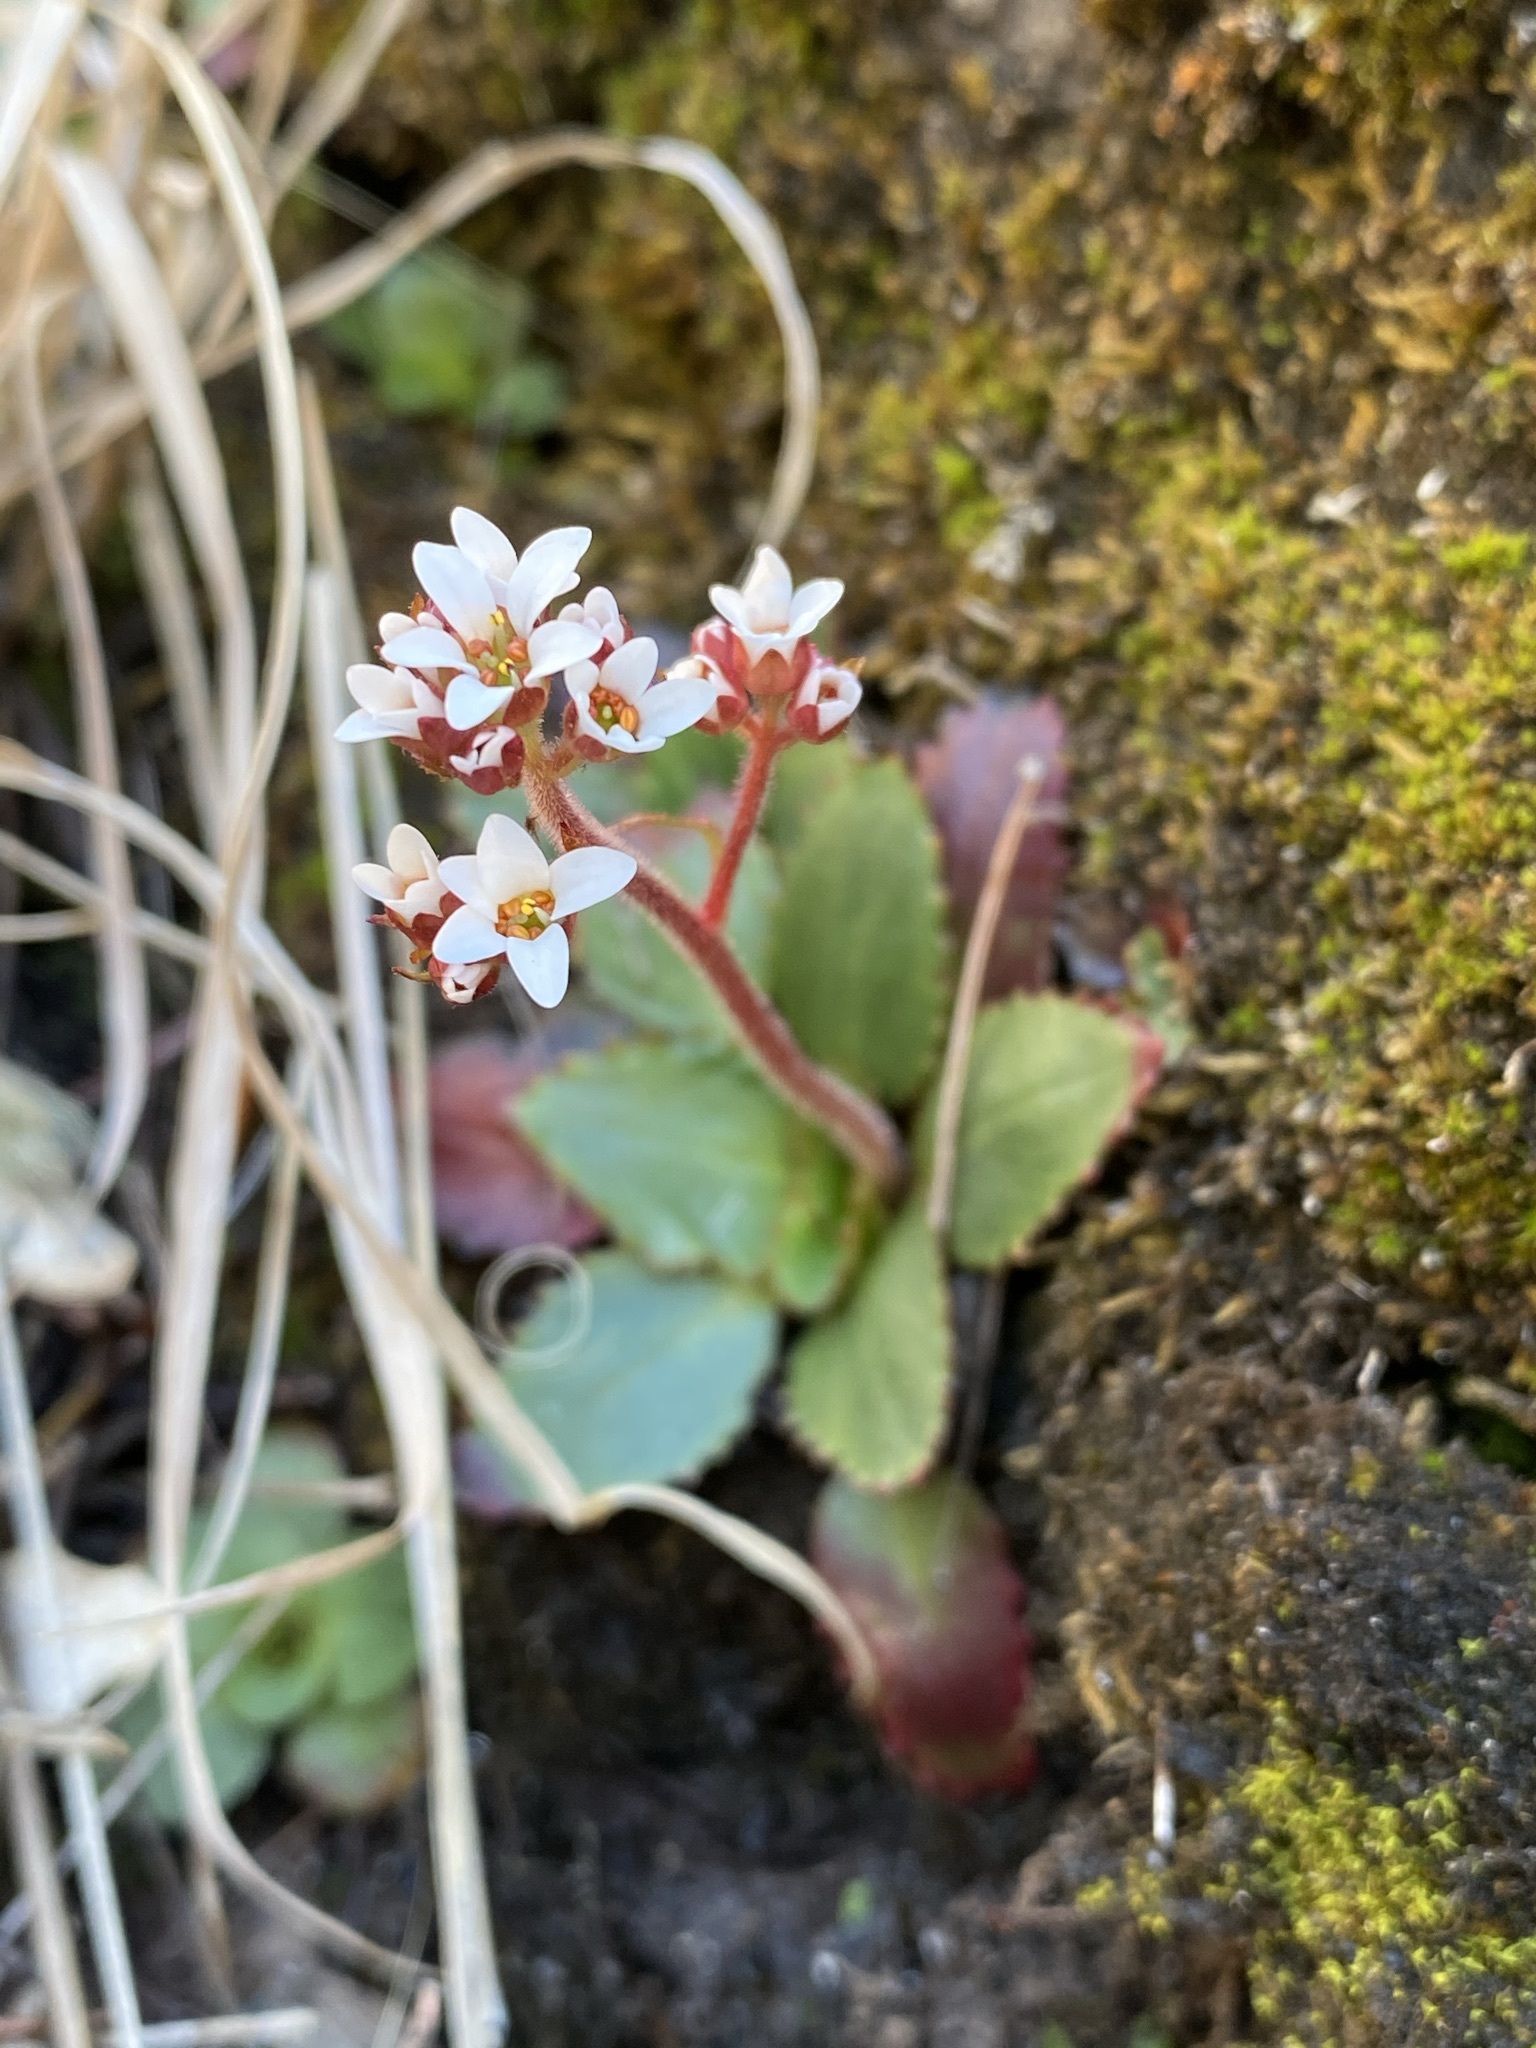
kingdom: Plantae
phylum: Tracheophyta
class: Magnoliopsida
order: Saxifragales
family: Saxifragaceae
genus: Micranthes
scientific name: Micranthes eriophora
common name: Redfuzz saxifrage
